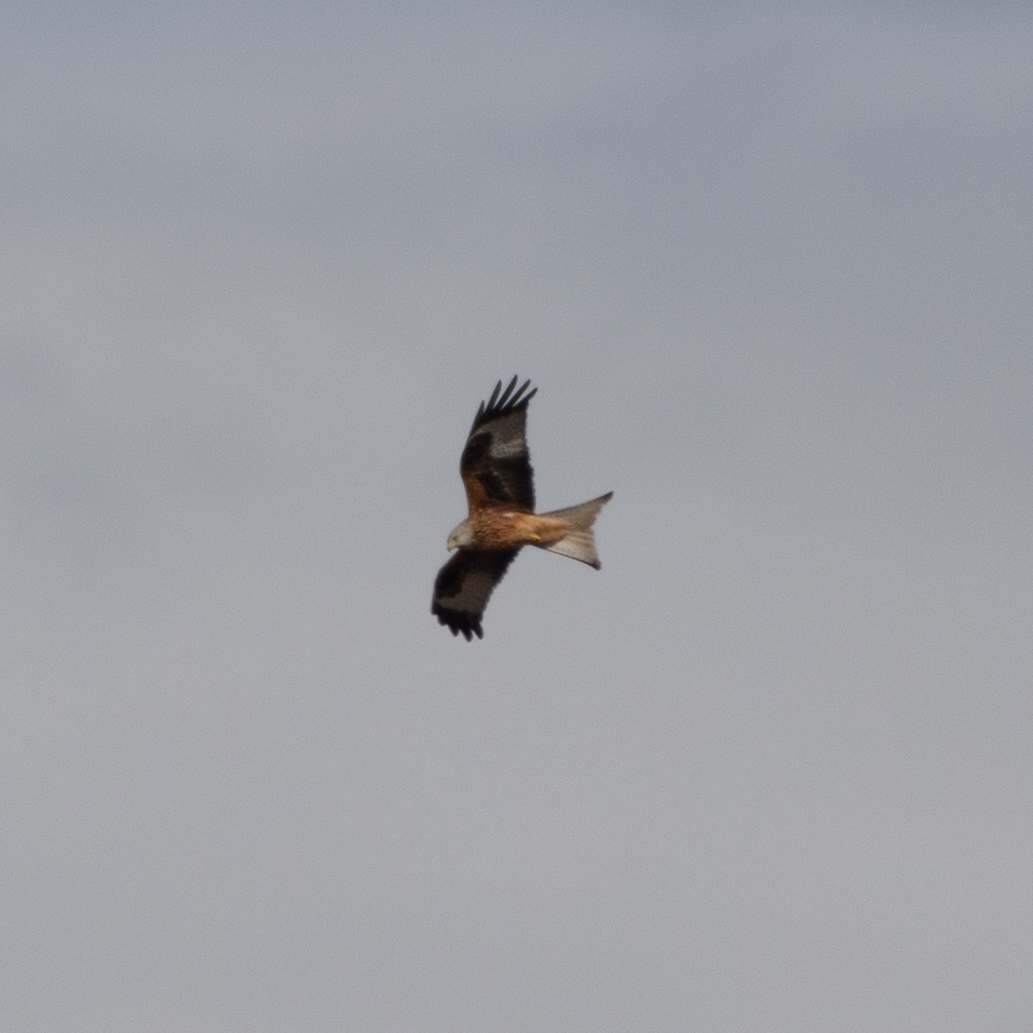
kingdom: Animalia
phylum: Chordata
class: Aves
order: Accipitriformes
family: Accipitridae
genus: Milvus
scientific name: Milvus milvus
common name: Red kite
